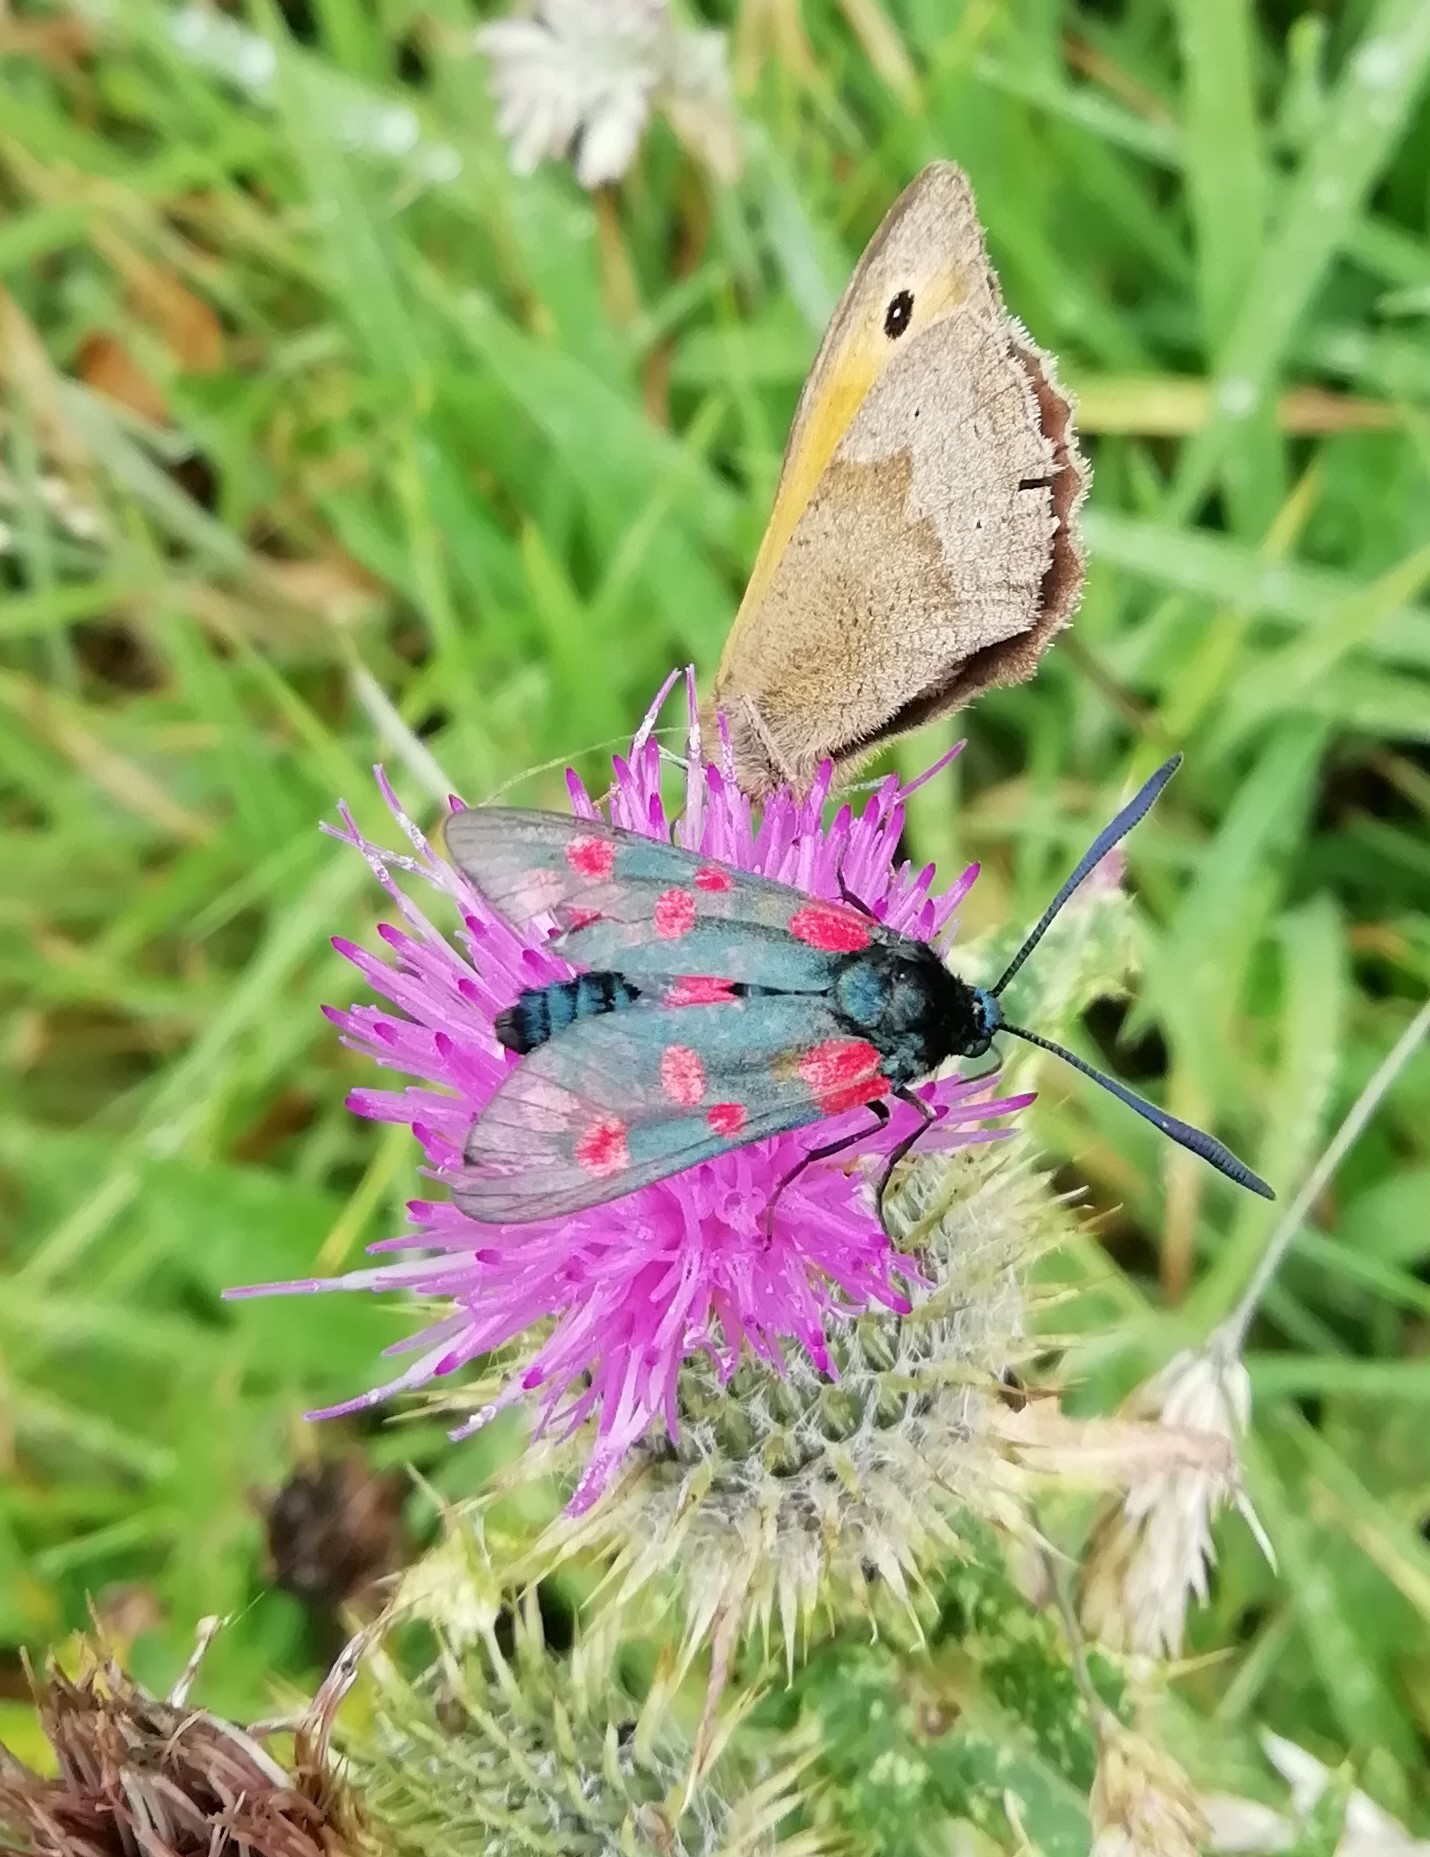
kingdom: Animalia
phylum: Arthropoda
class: Insecta
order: Lepidoptera
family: Zygaenidae
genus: Zygaena
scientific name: Zygaena filipendulae
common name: Six-spot burnet
